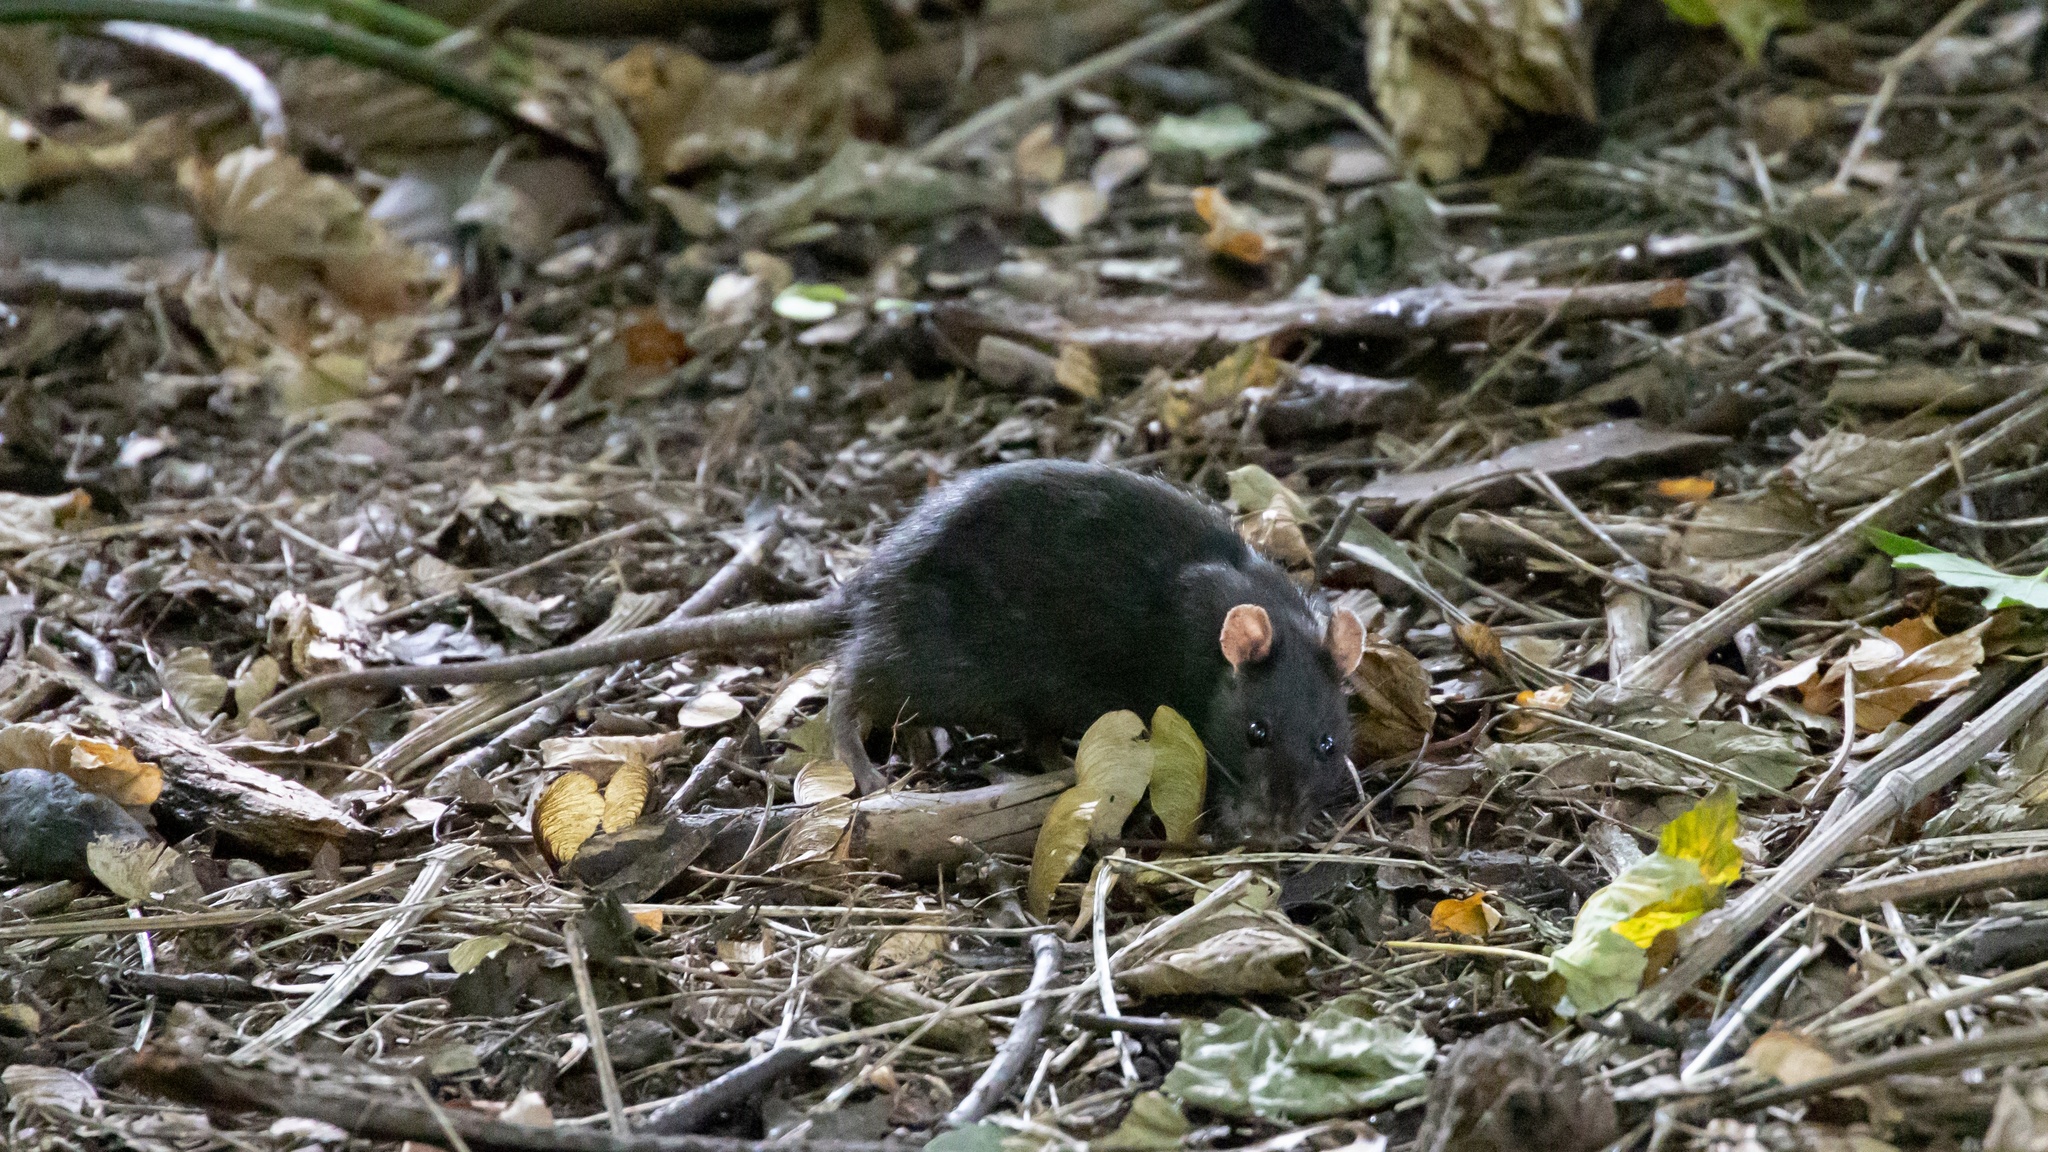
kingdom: Animalia
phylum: Chordata
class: Mammalia
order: Rodentia
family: Muridae
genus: Rattus
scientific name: Rattus norvegicus
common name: Brown rat
